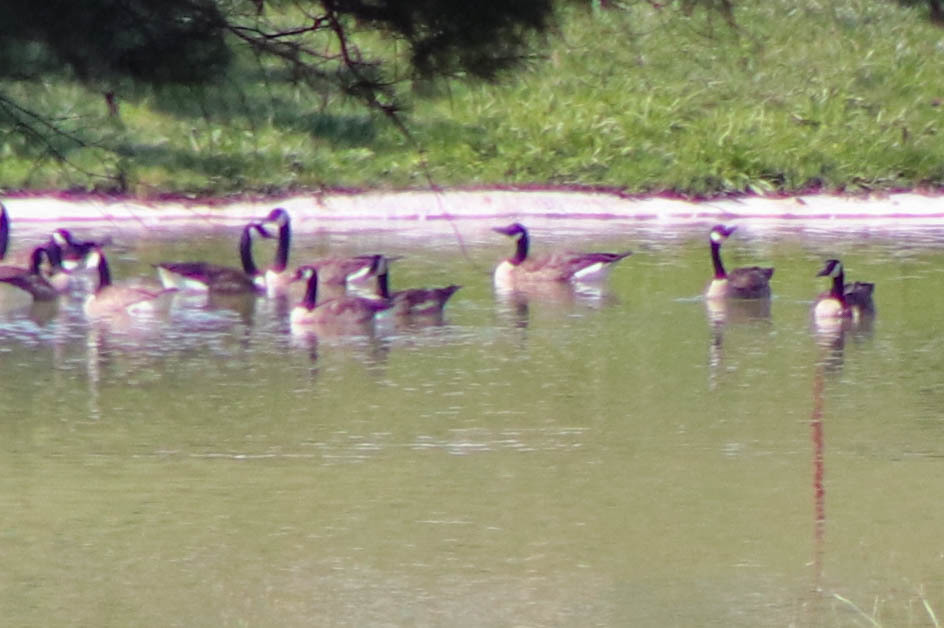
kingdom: Animalia
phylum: Chordata
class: Aves
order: Anseriformes
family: Anatidae
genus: Branta
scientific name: Branta canadensis
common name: Canada goose
